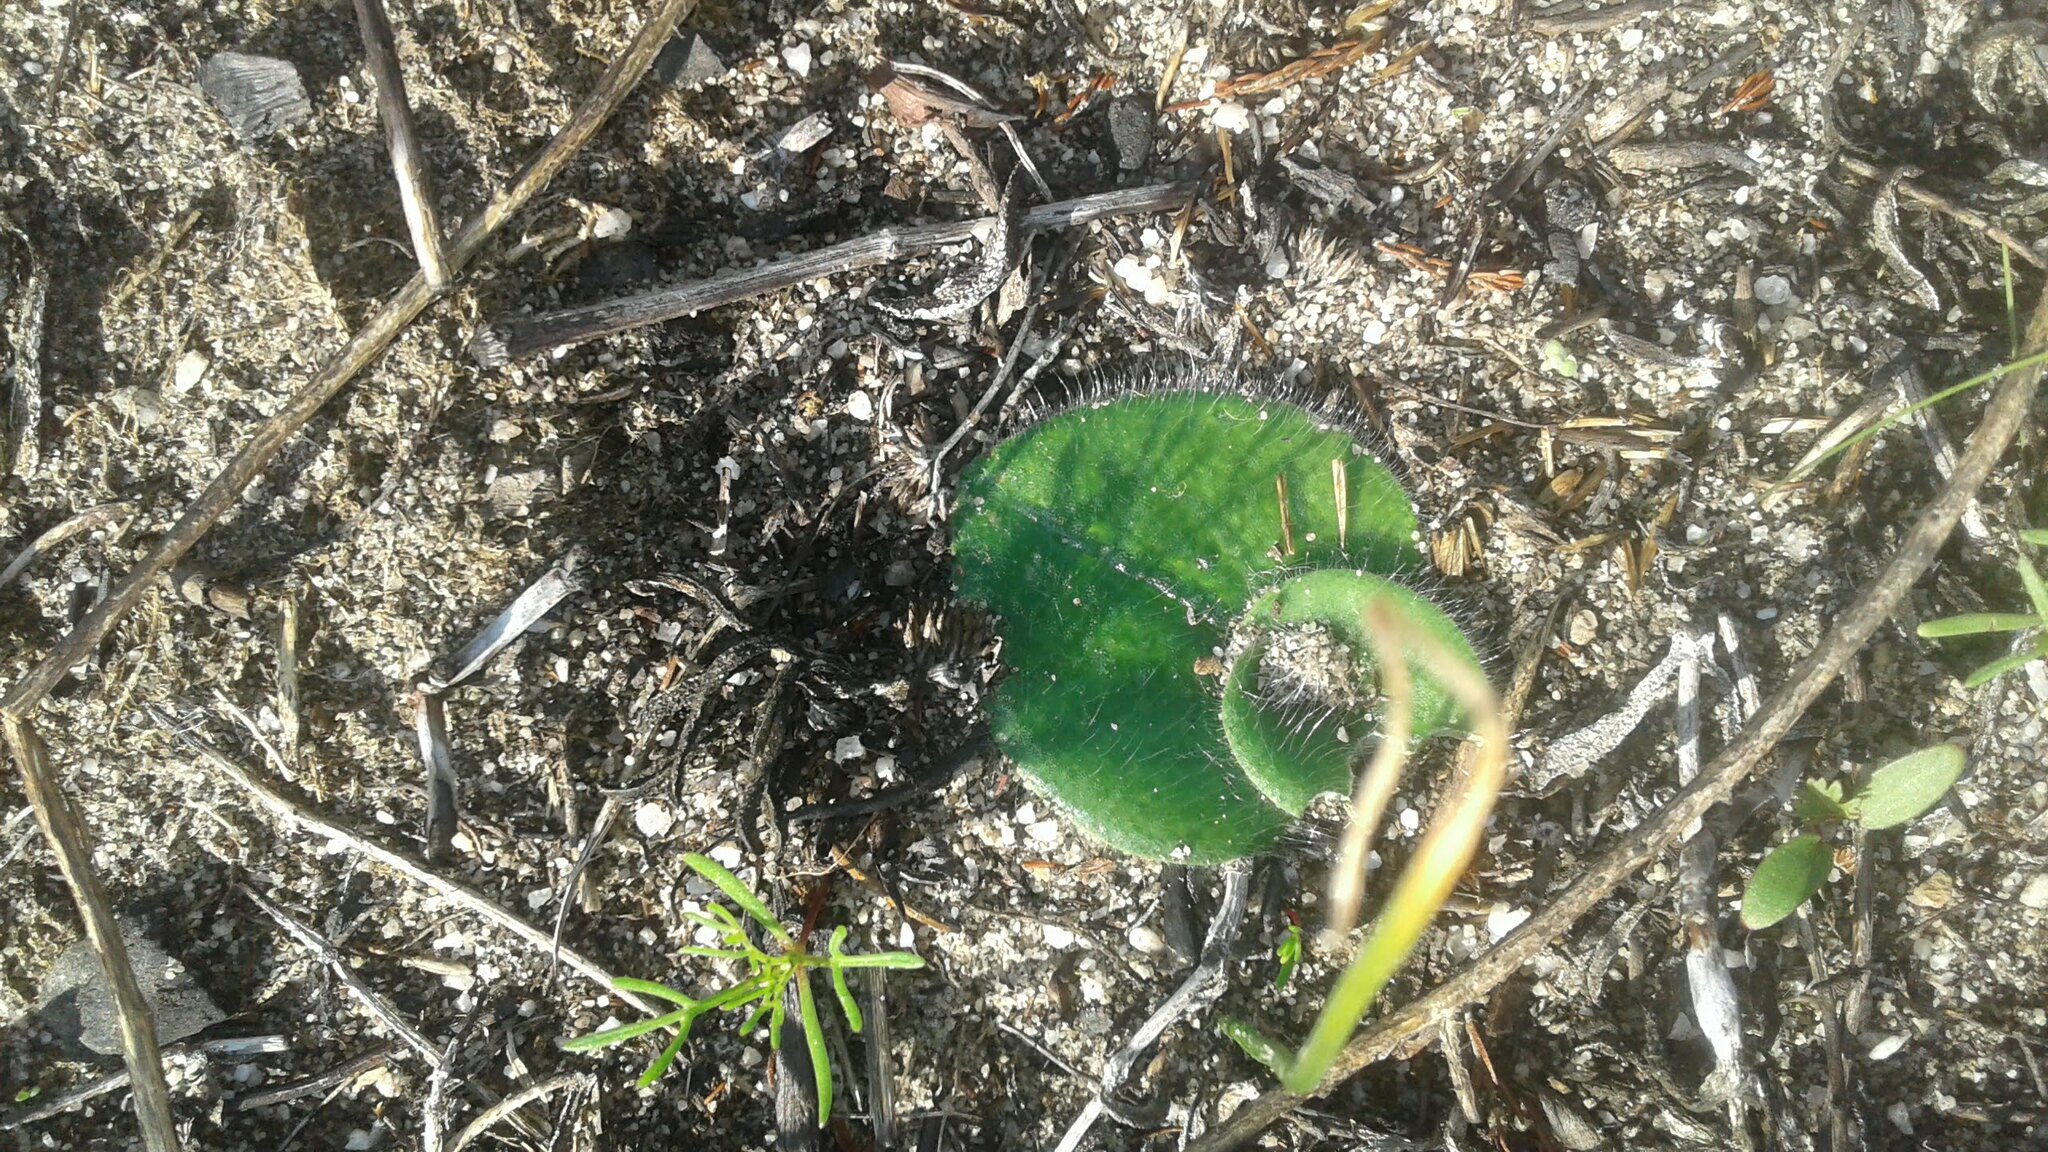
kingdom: Plantae
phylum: Tracheophyta
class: Liliopsida
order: Asparagales
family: Orchidaceae
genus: Holothrix
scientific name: Holothrix villosa
